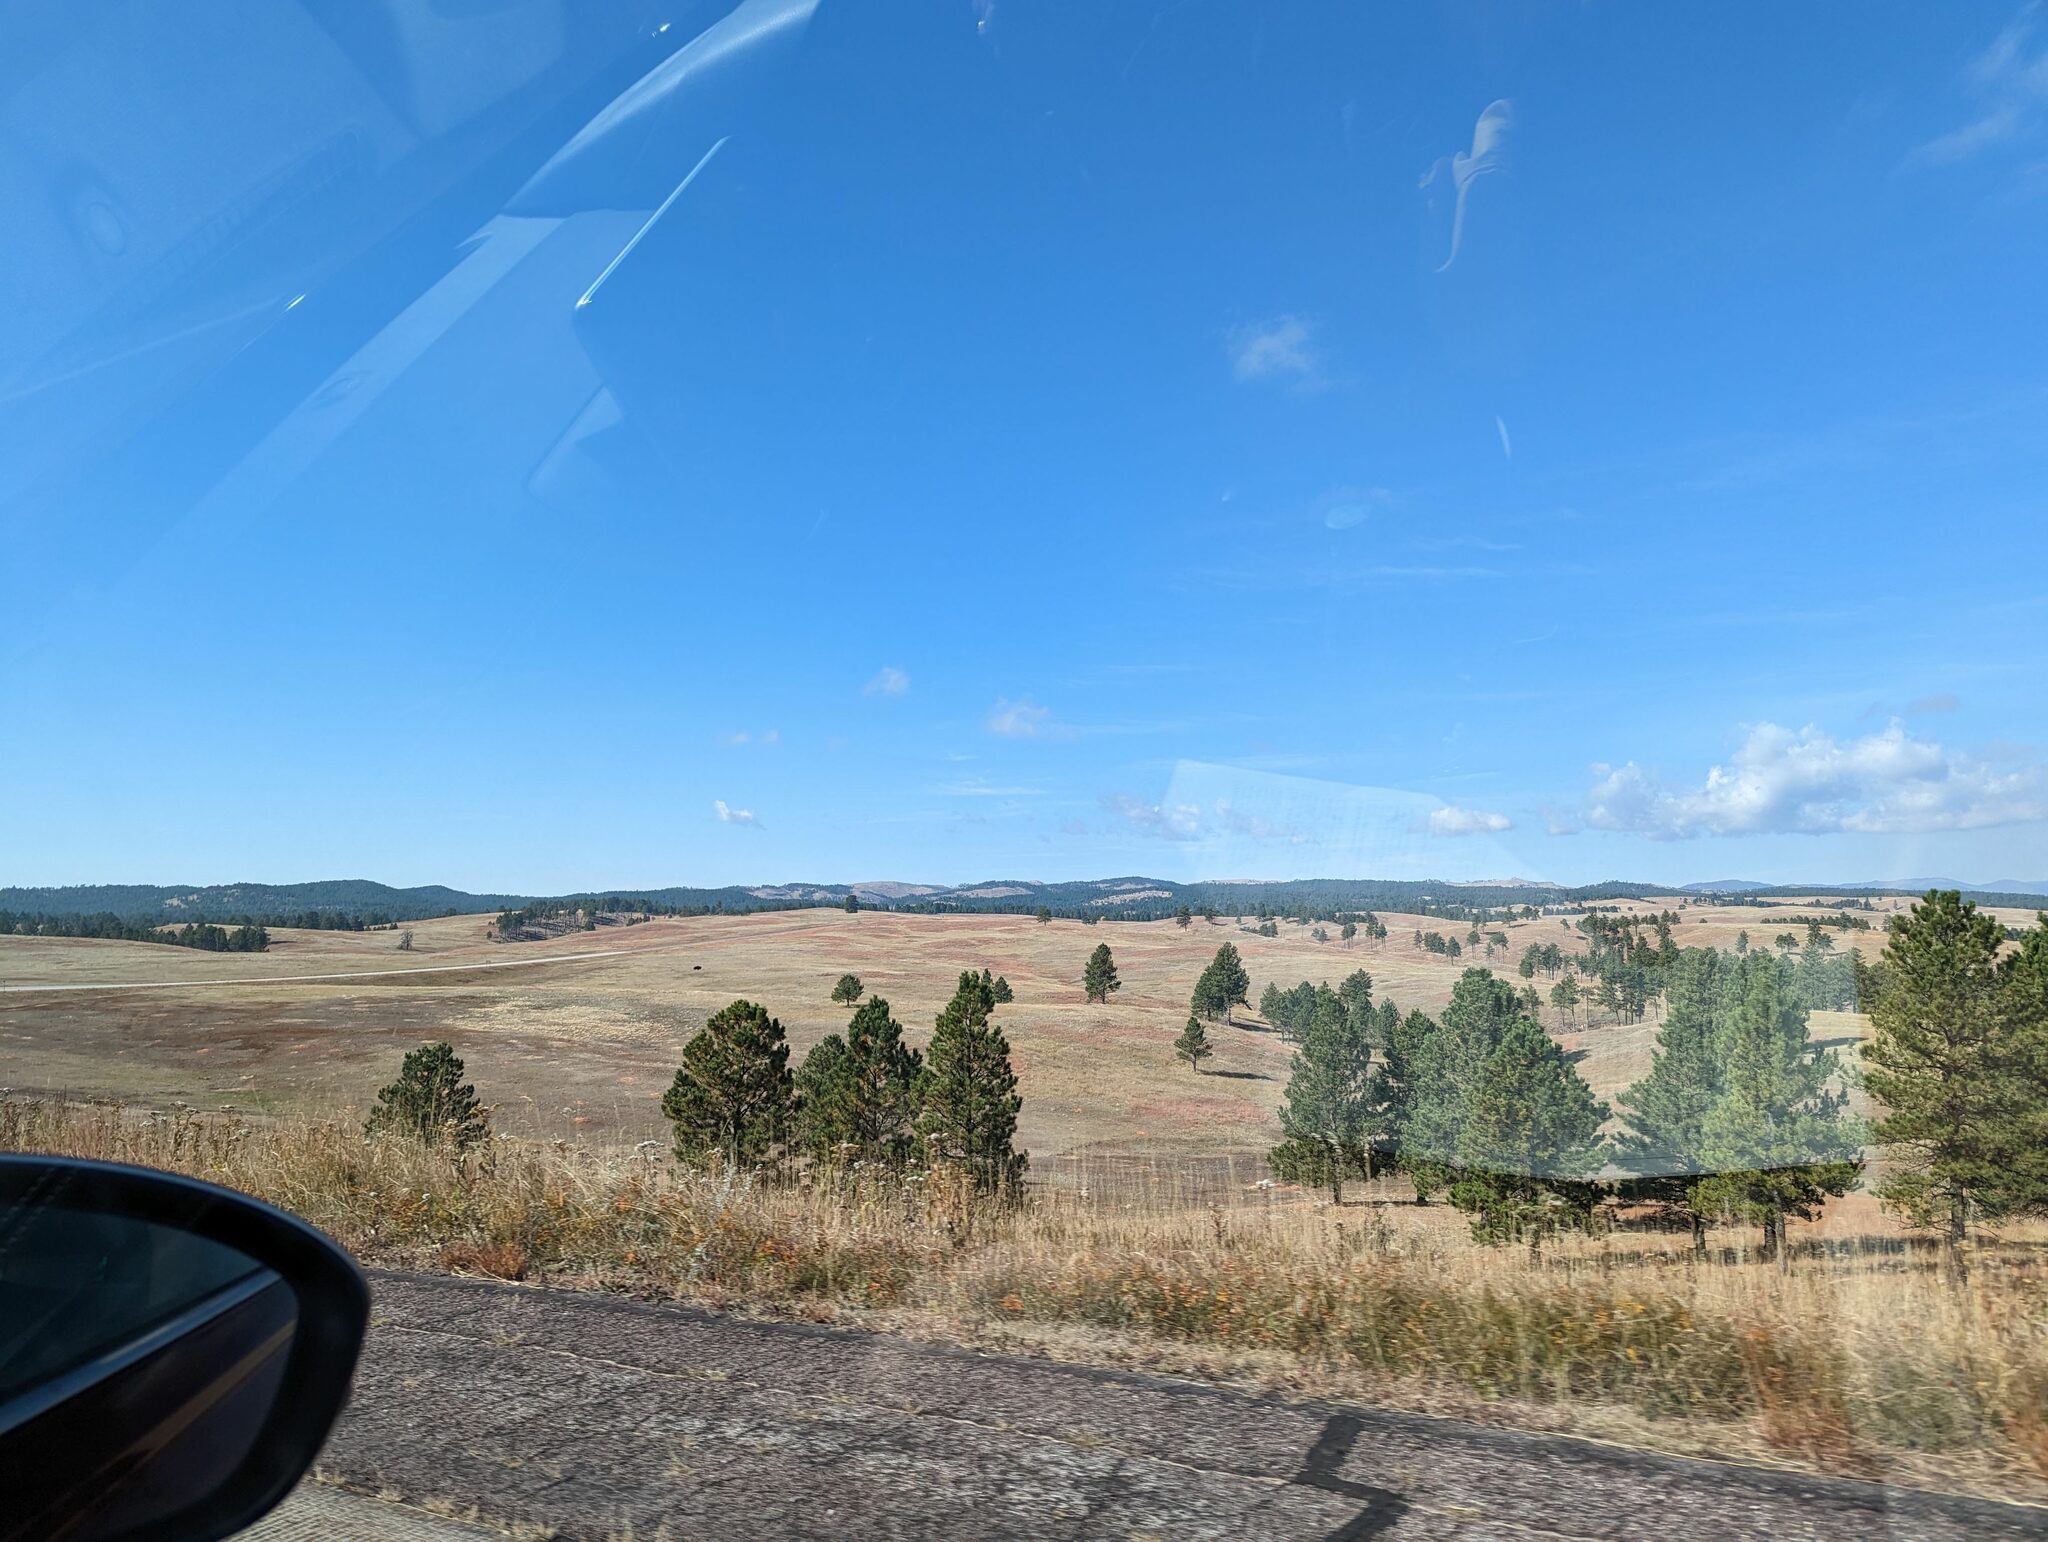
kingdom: Plantae
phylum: Tracheophyta
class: Pinopsida
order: Pinales
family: Pinaceae
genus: Pinus
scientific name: Pinus ponderosa
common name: Western yellow-pine
